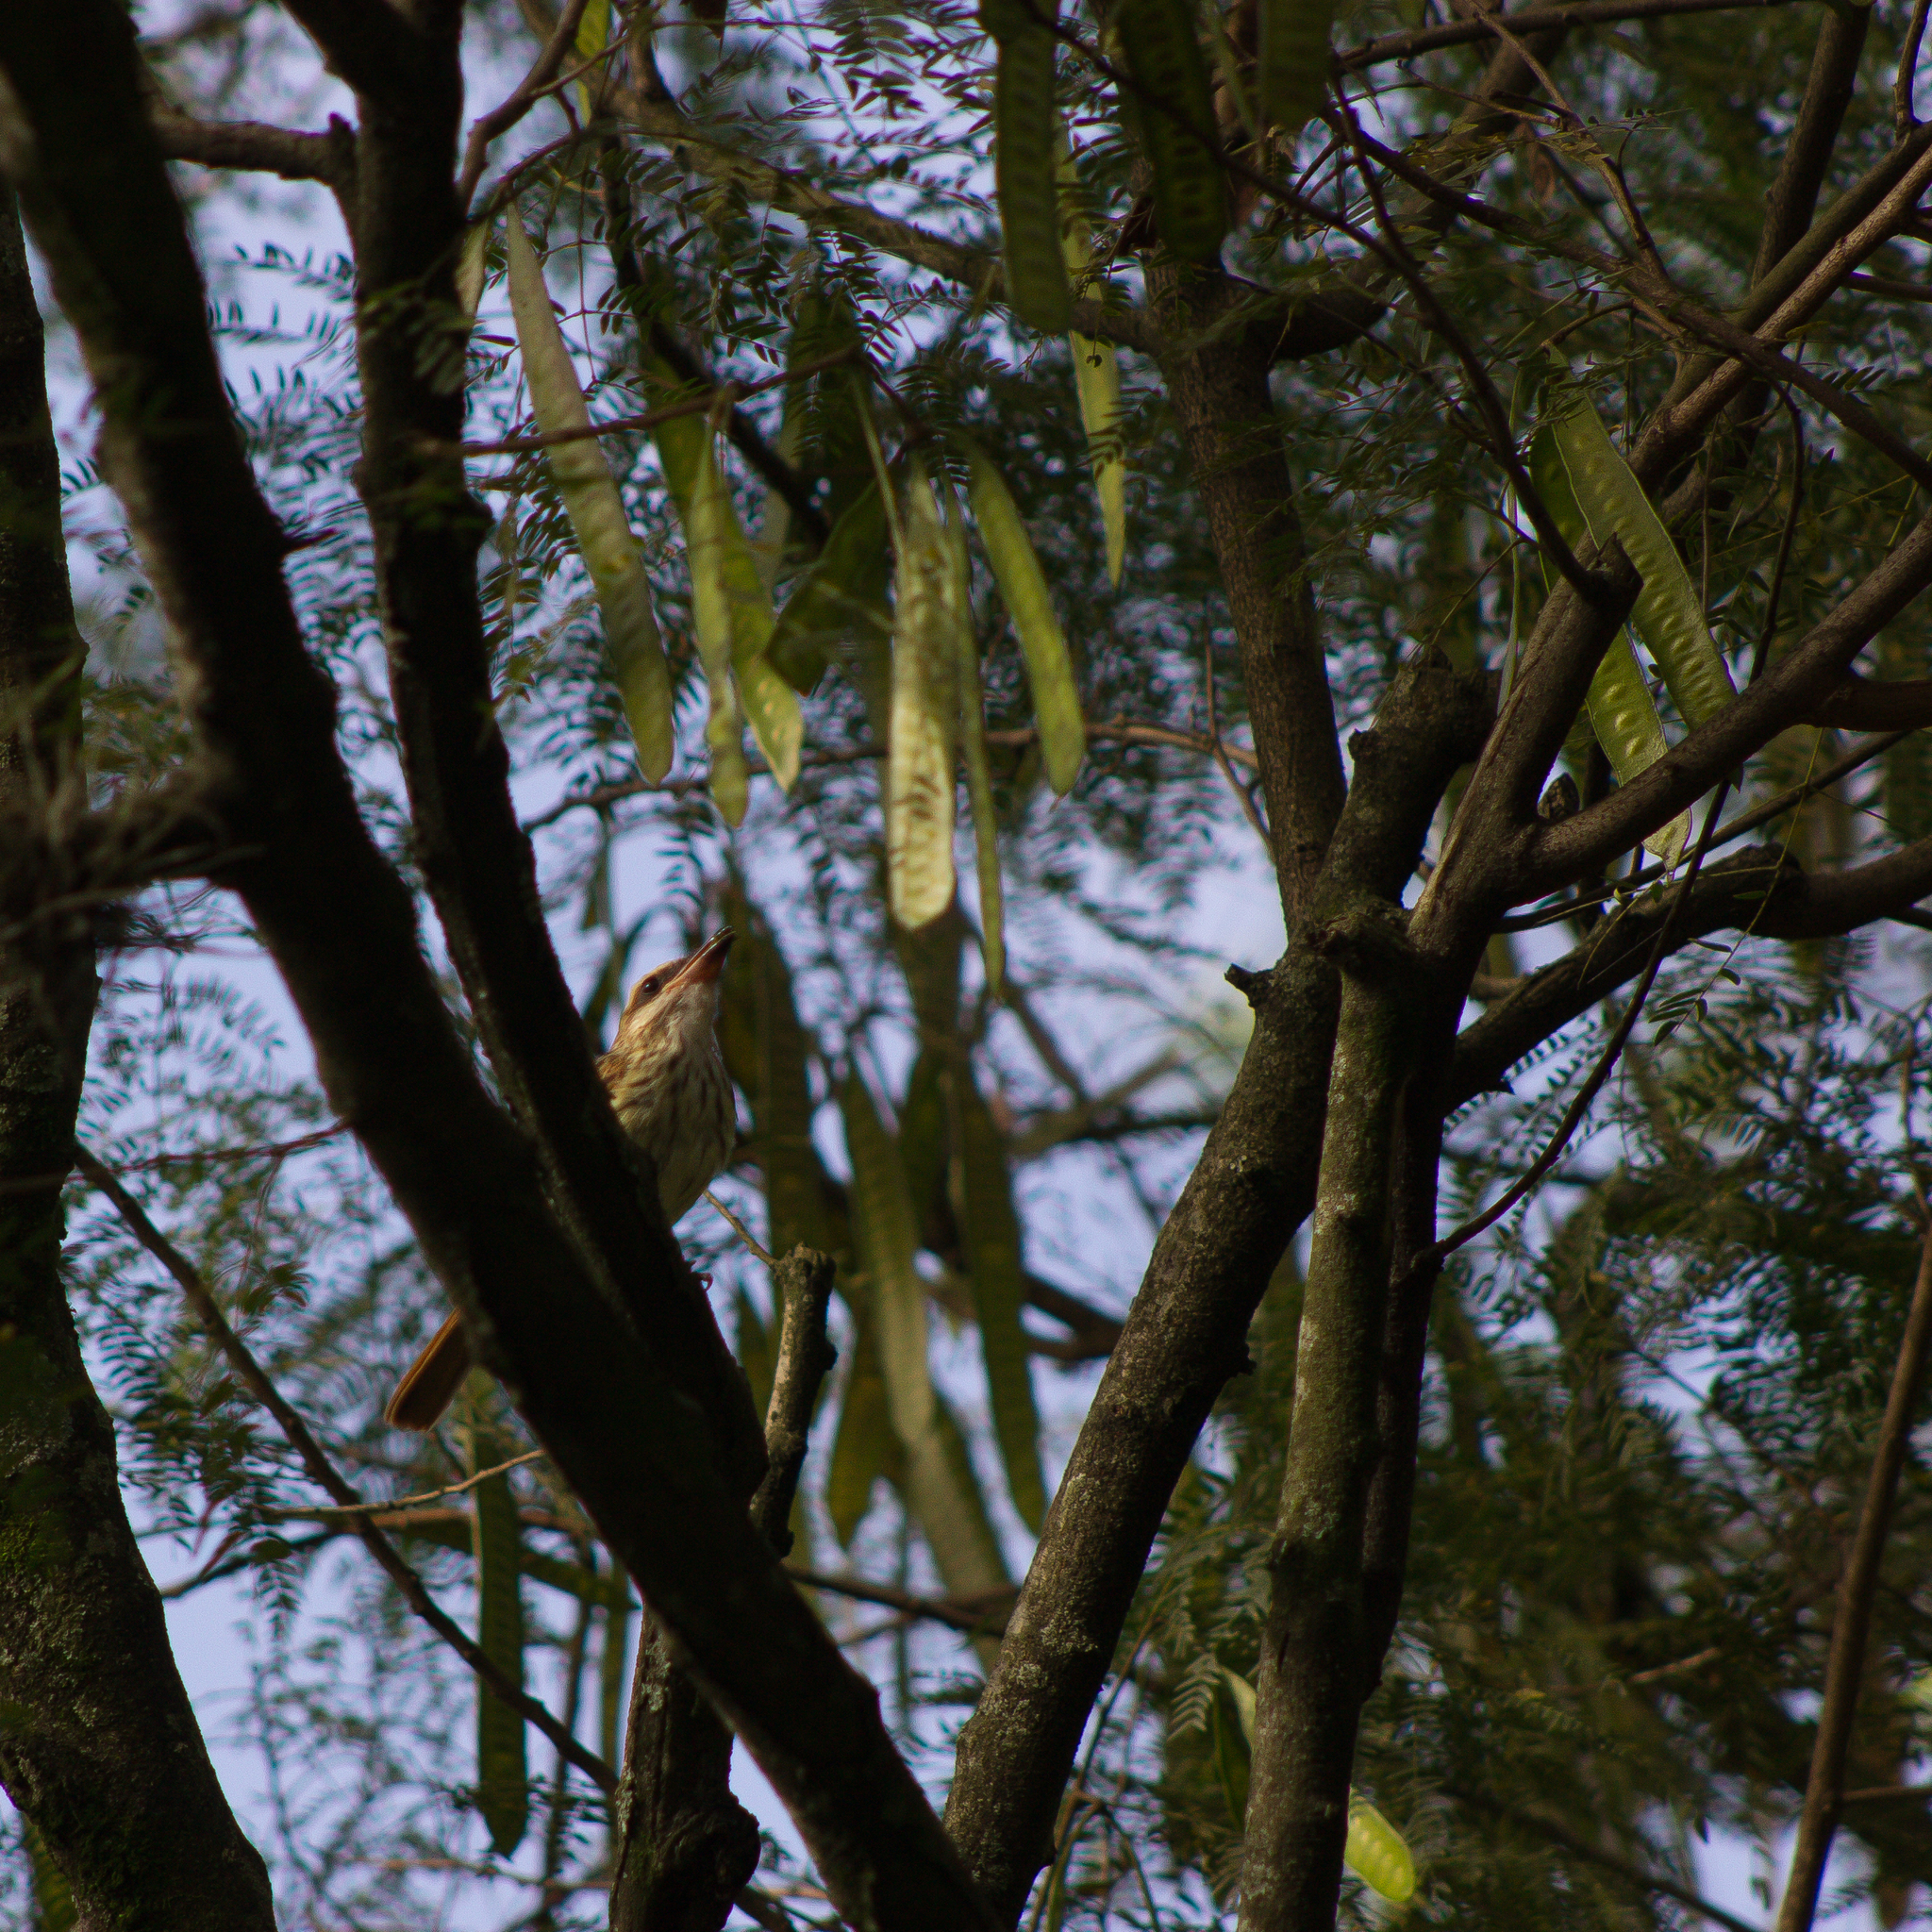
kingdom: Animalia
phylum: Chordata
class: Aves
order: Passeriformes
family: Tyrannidae
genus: Myiodynastes
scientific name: Myiodynastes maculatus
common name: Streaked flycatcher
